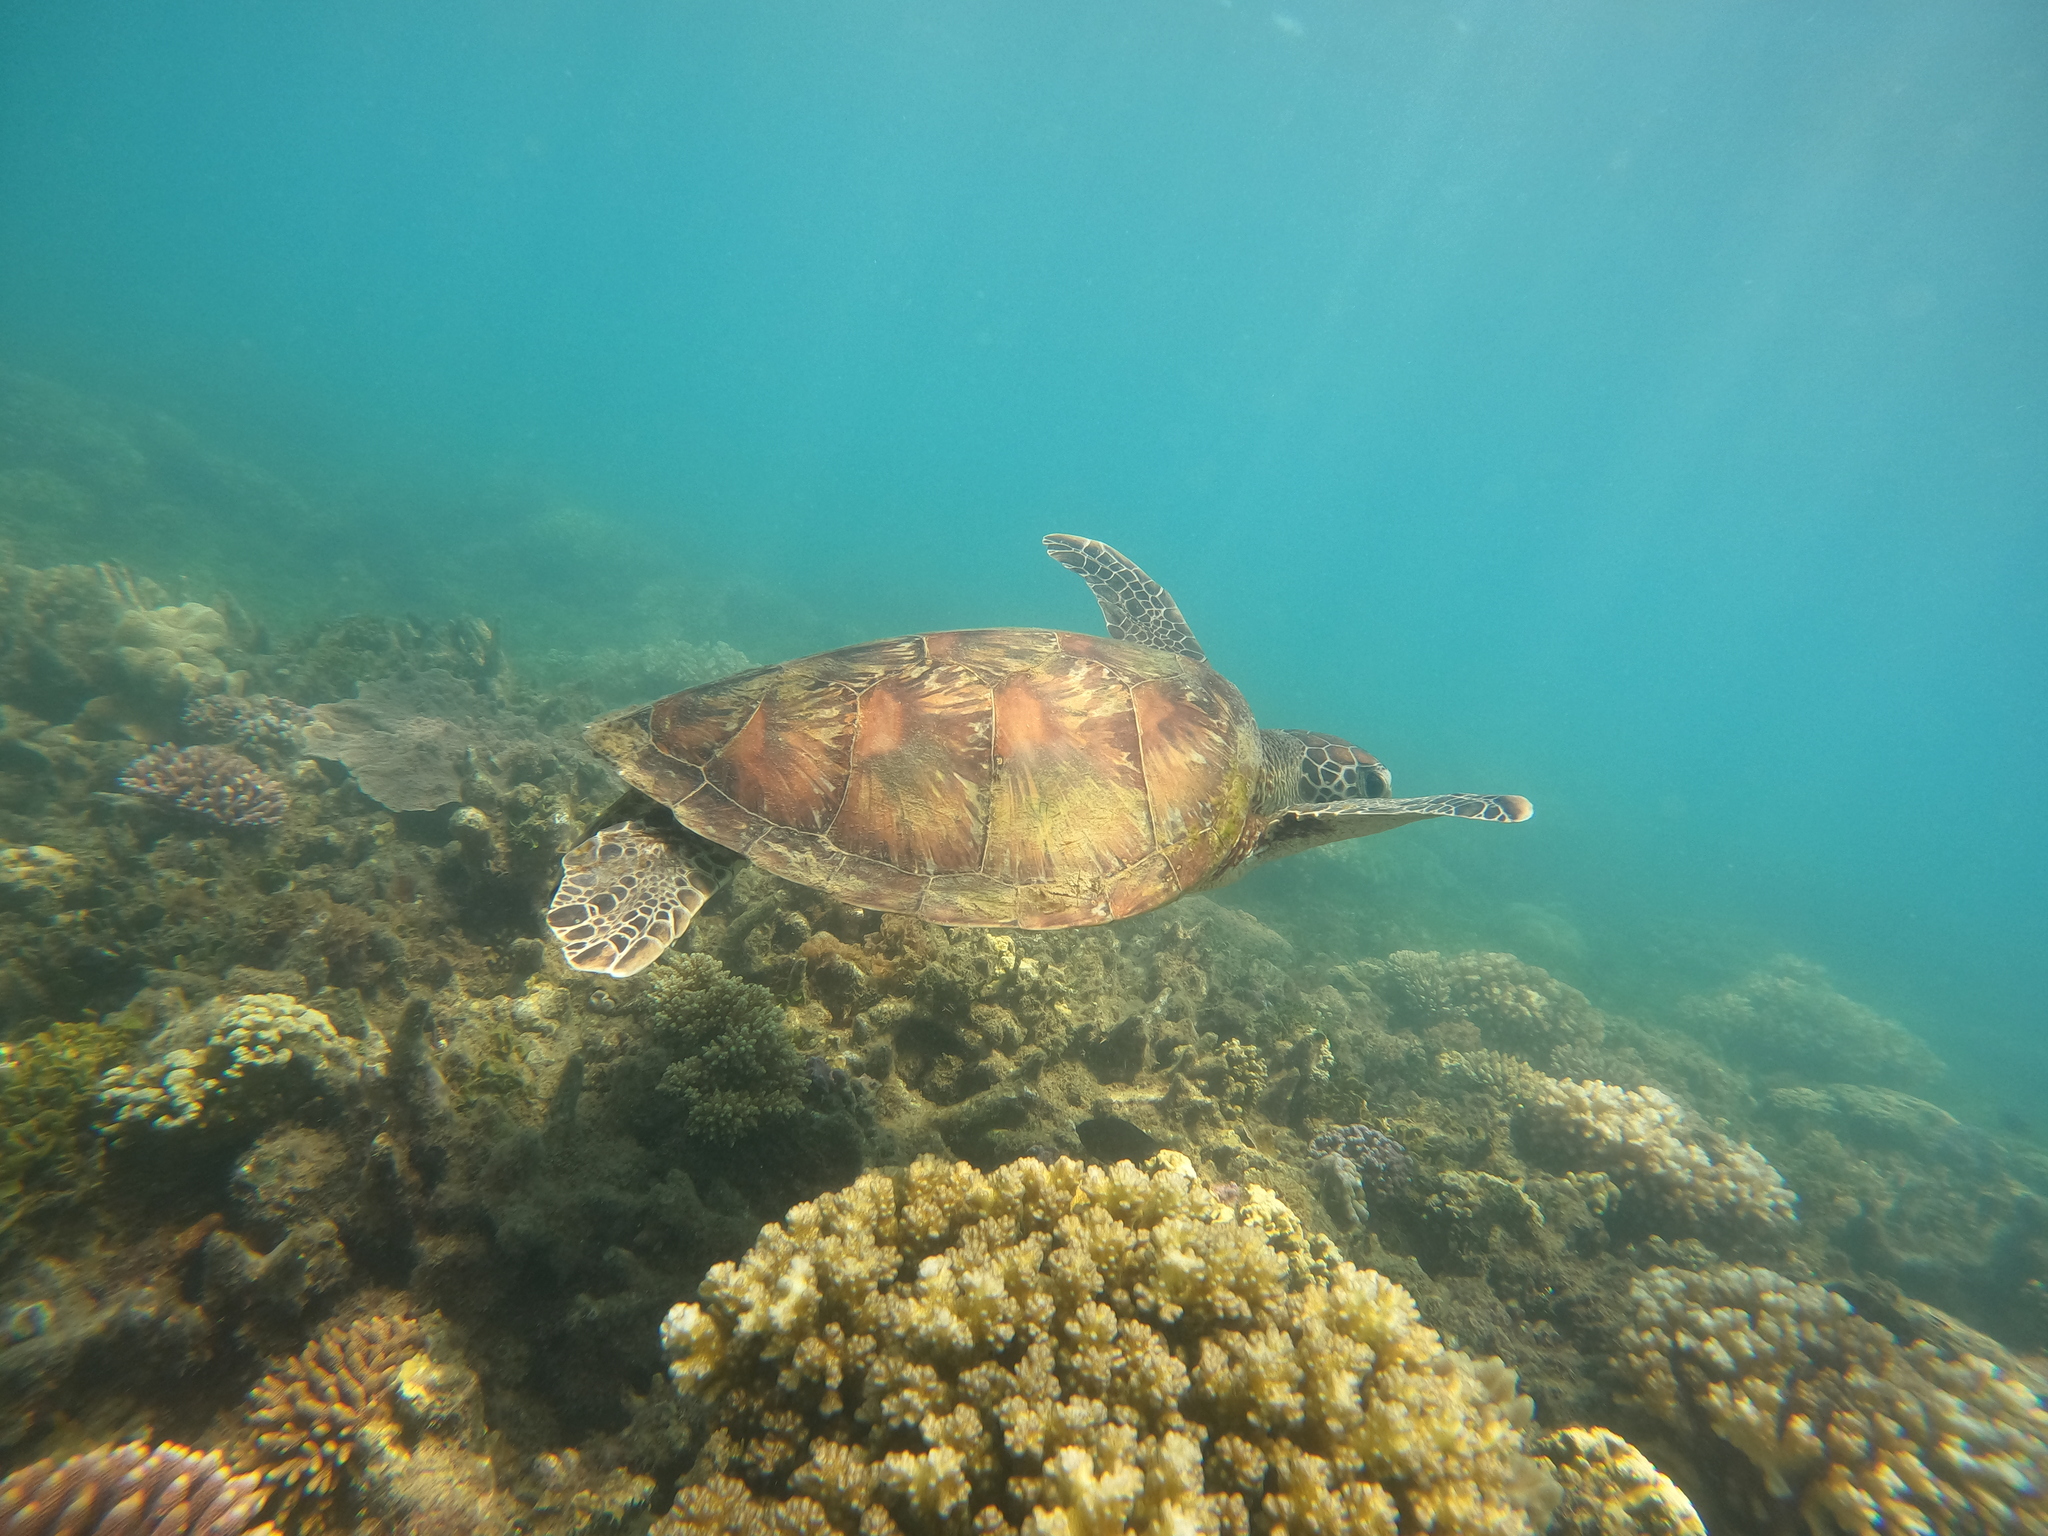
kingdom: Animalia
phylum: Chordata
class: Testudines
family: Cheloniidae
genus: Chelonia
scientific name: Chelonia mydas
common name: Green turtle
